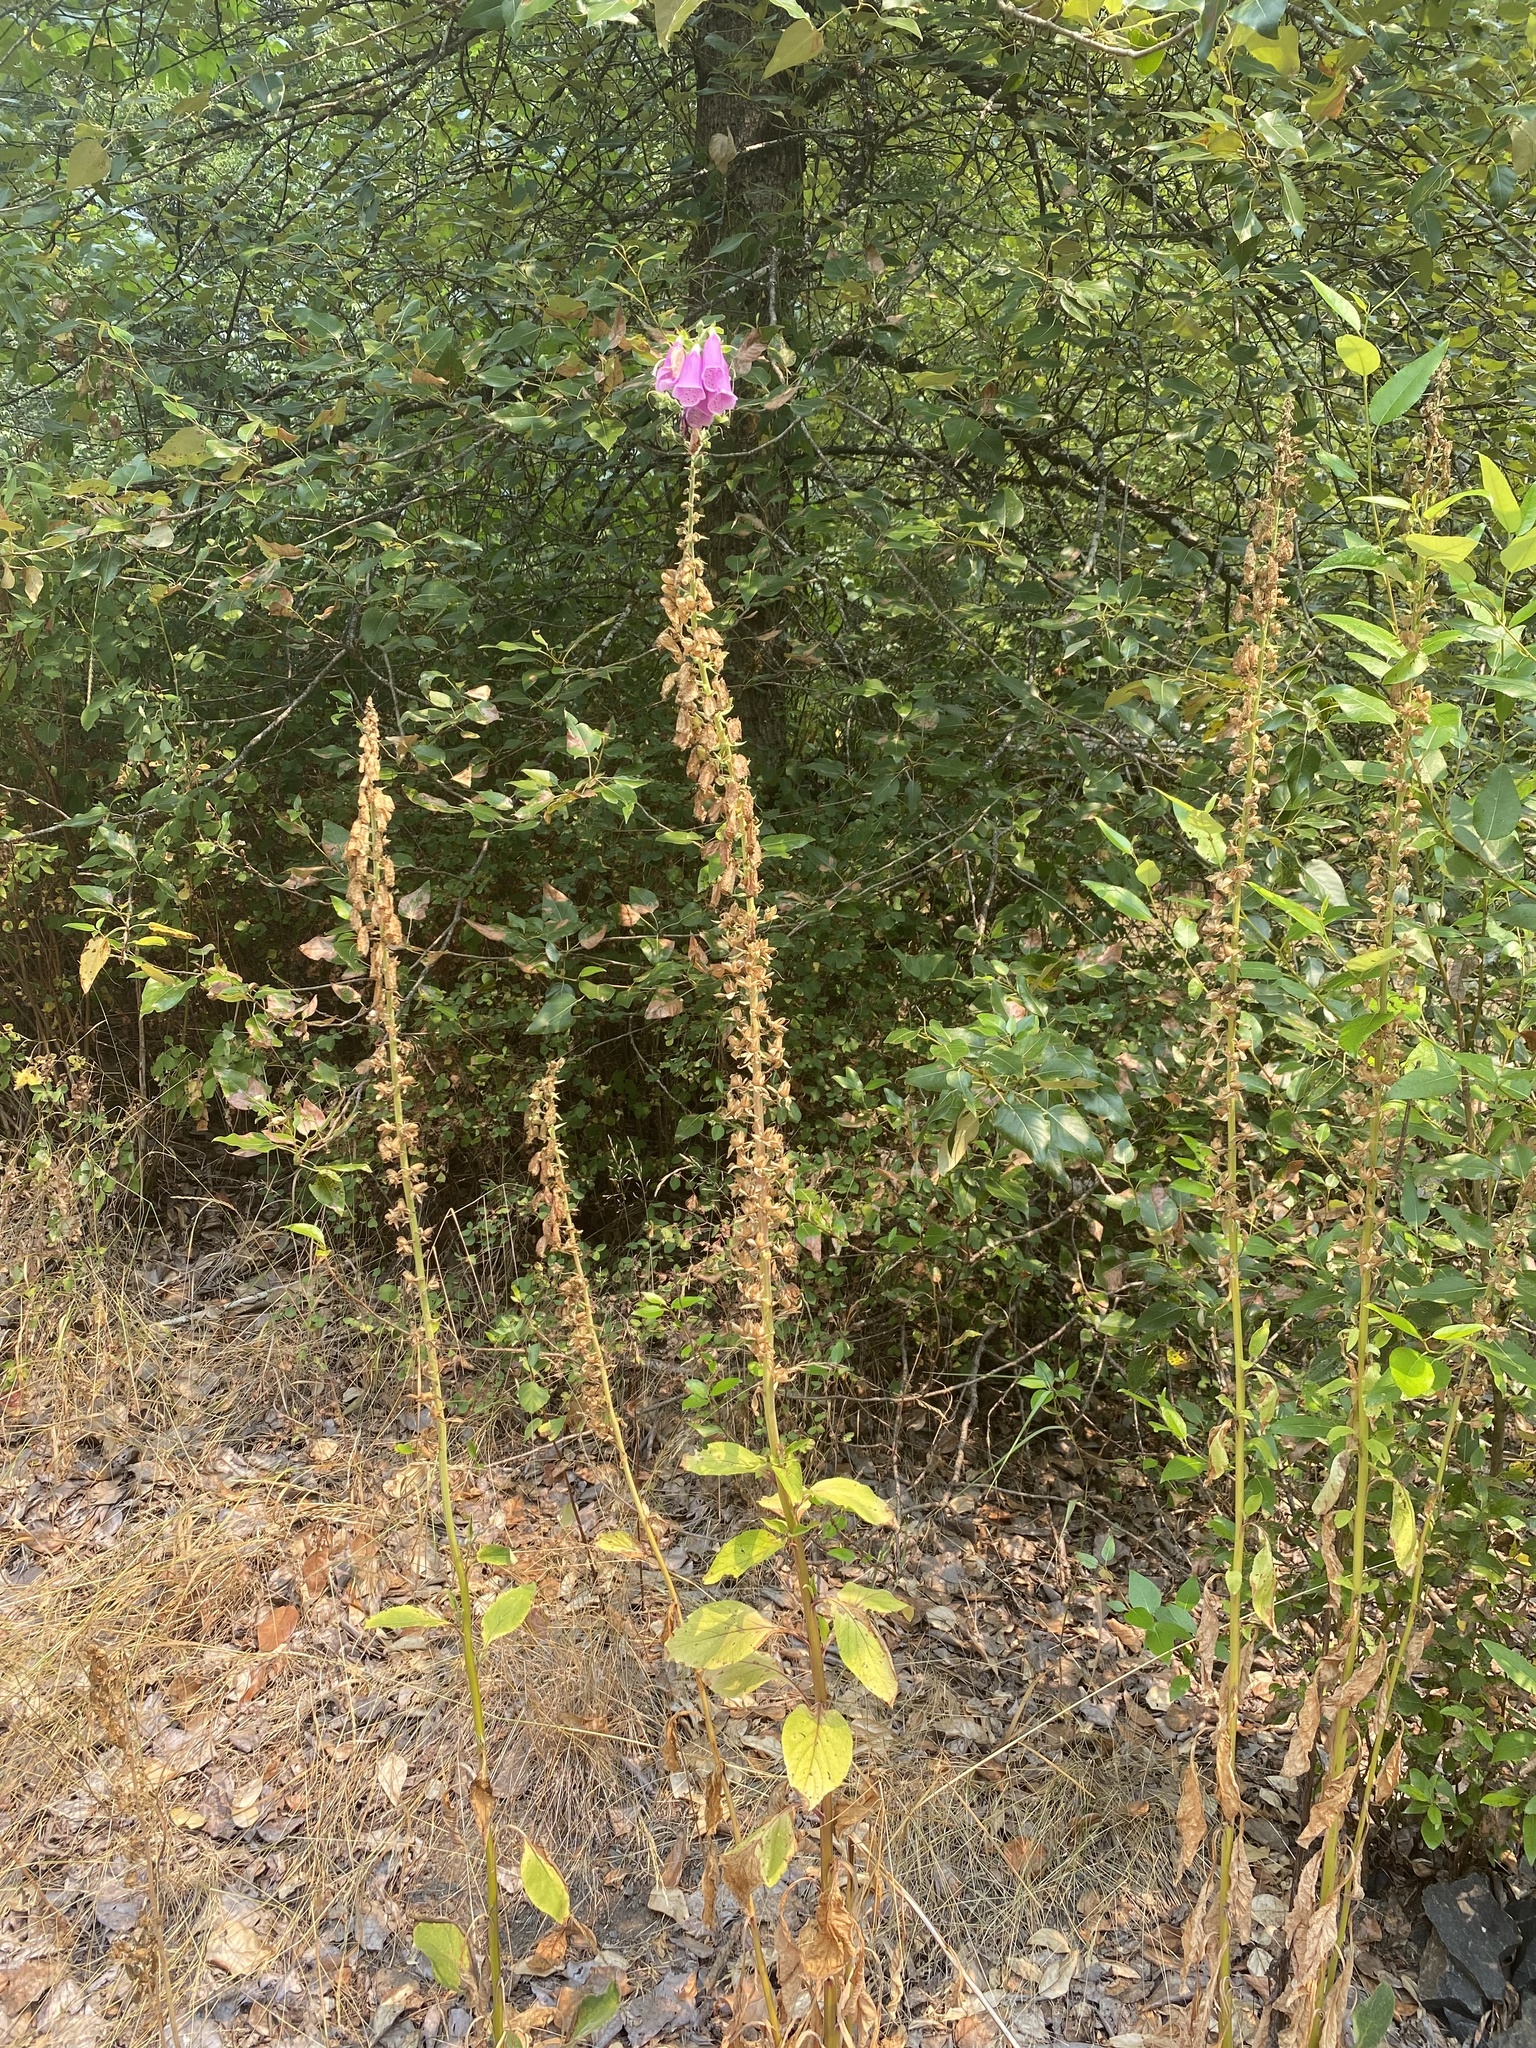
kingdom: Plantae
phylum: Tracheophyta
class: Magnoliopsida
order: Lamiales
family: Plantaginaceae
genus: Digitalis
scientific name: Digitalis purpurea
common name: Foxglove
